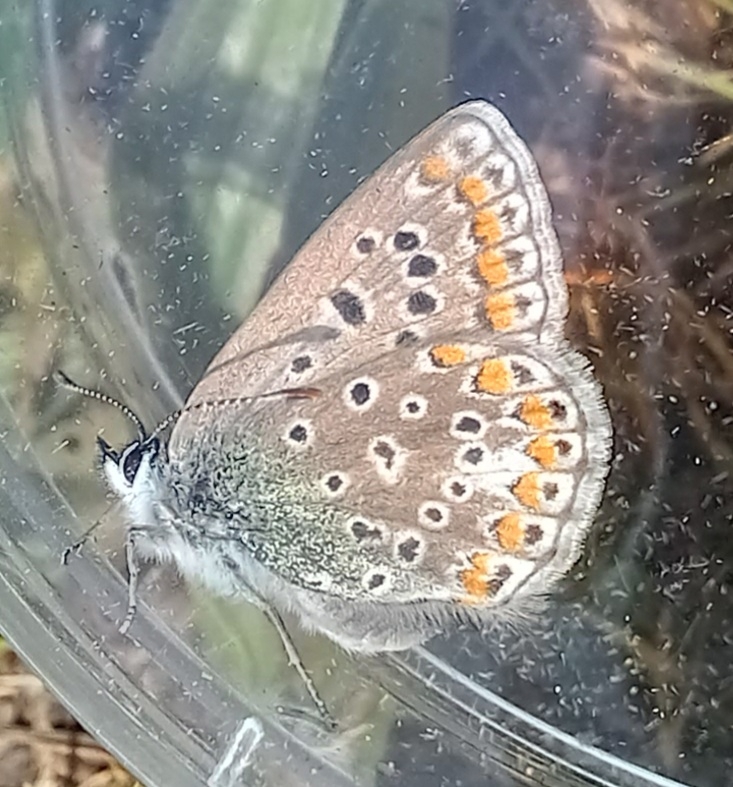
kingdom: Animalia
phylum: Arthropoda
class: Insecta
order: Lepidoptera
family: Lycaenidae
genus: Polyommatus
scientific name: Polyommatus icarus
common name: Common blue
